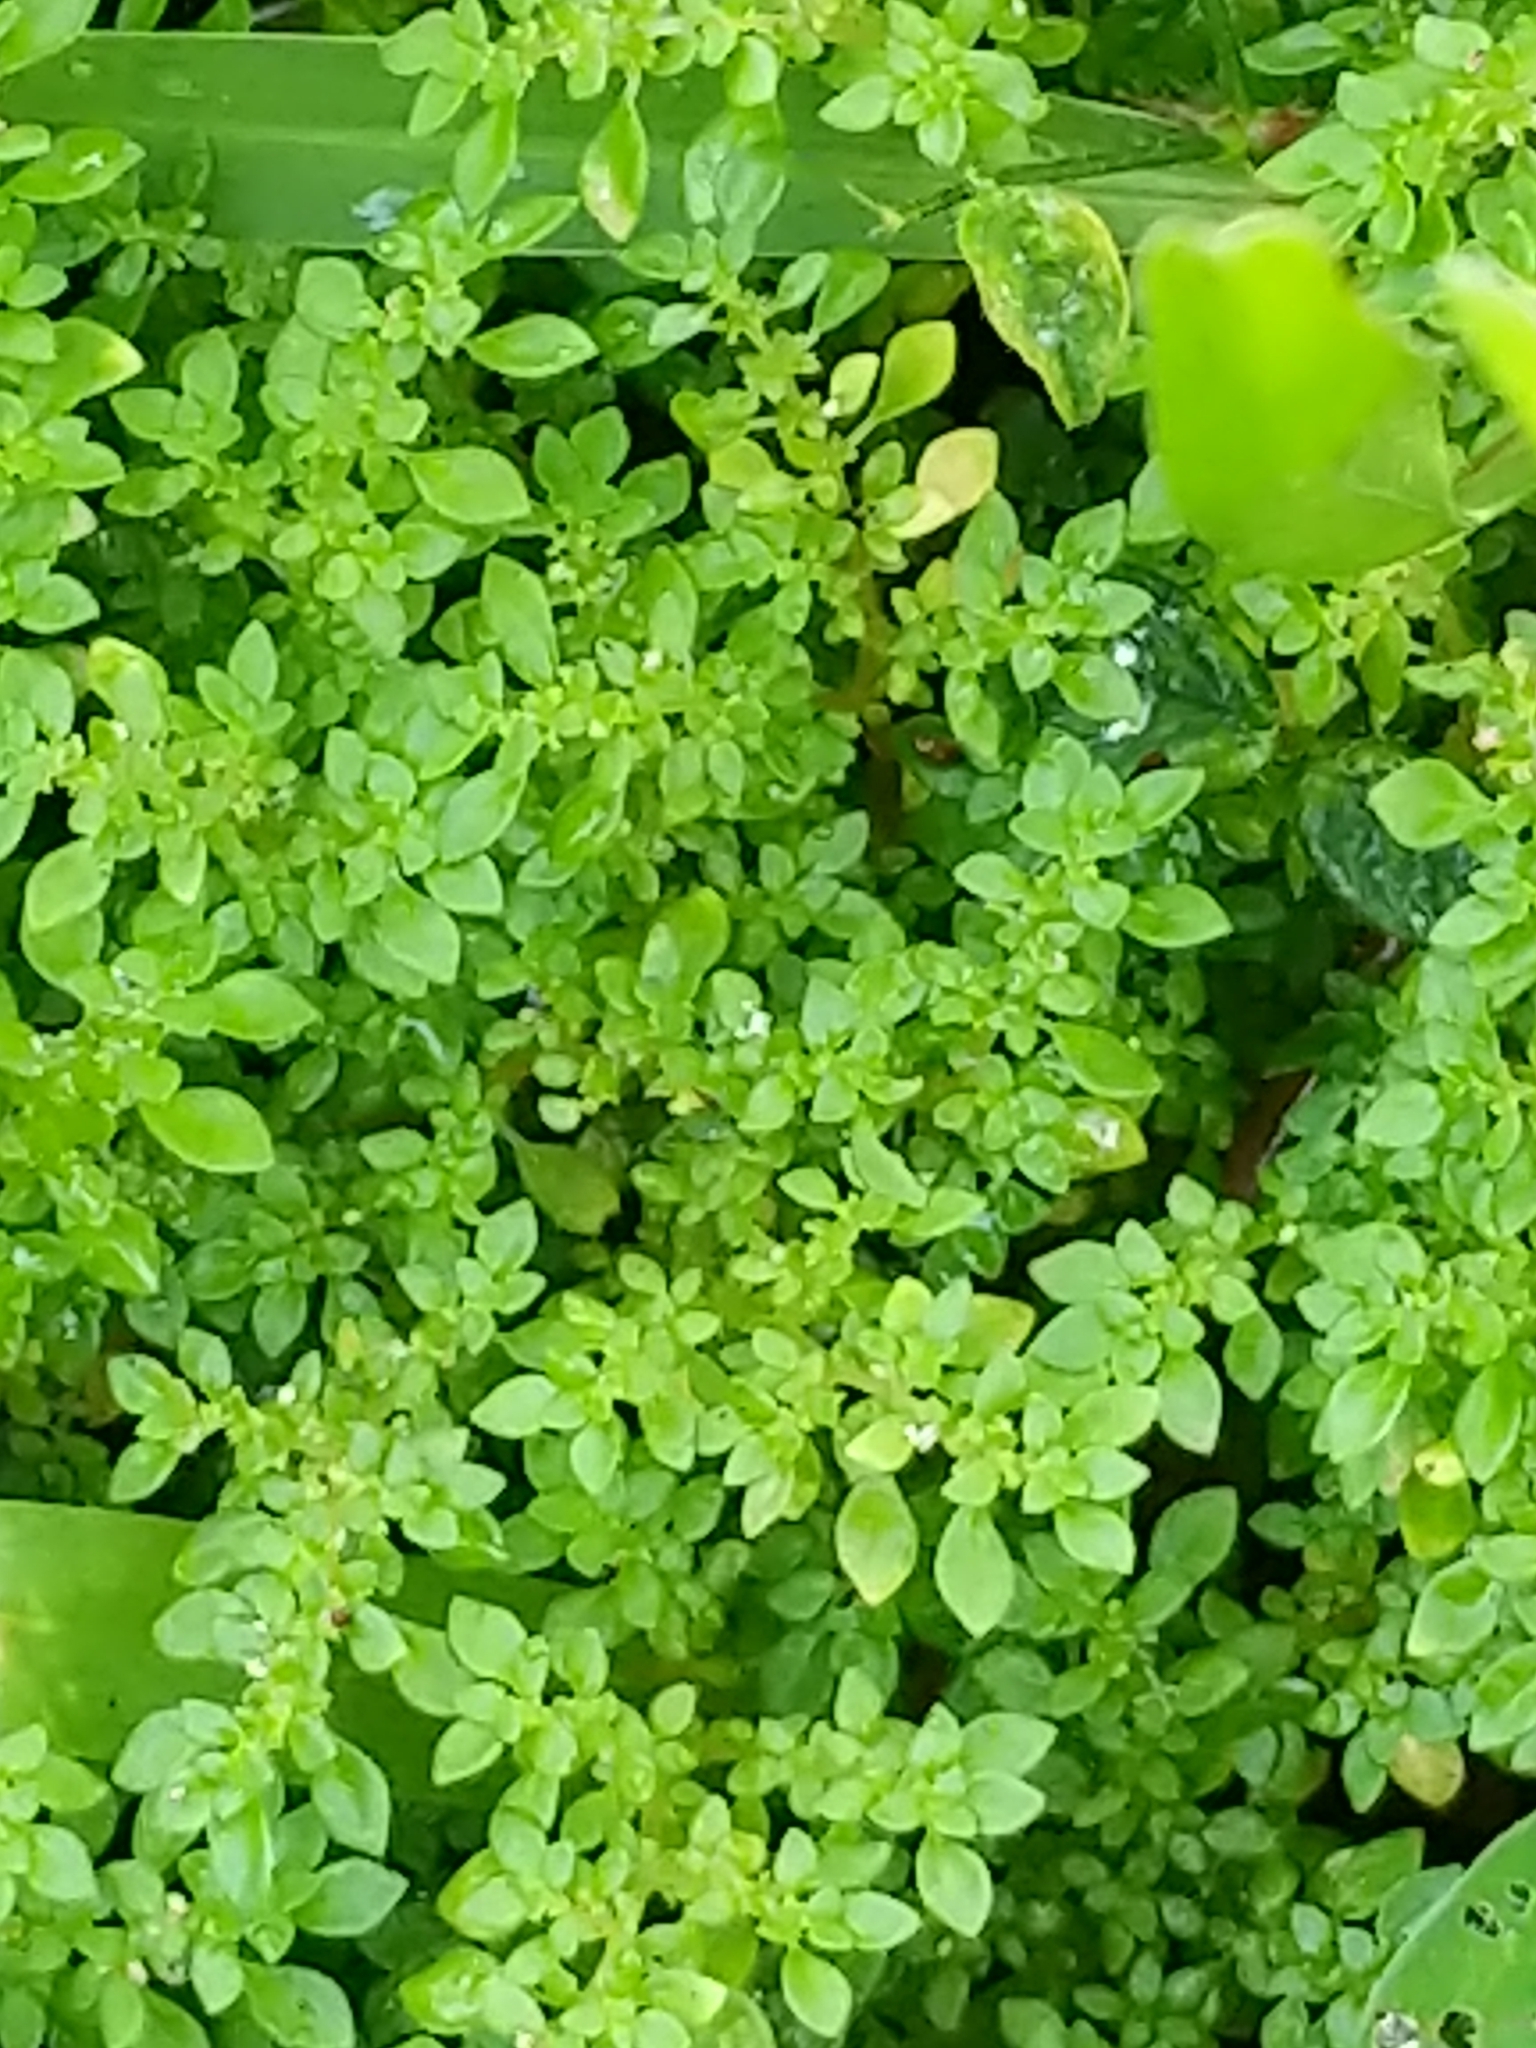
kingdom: Plantae
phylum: Tracheophyta
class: Magnoliopsida
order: Rosales
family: Urticaceae
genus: Pilea
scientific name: Pilea microphylla
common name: Artillery-plant
